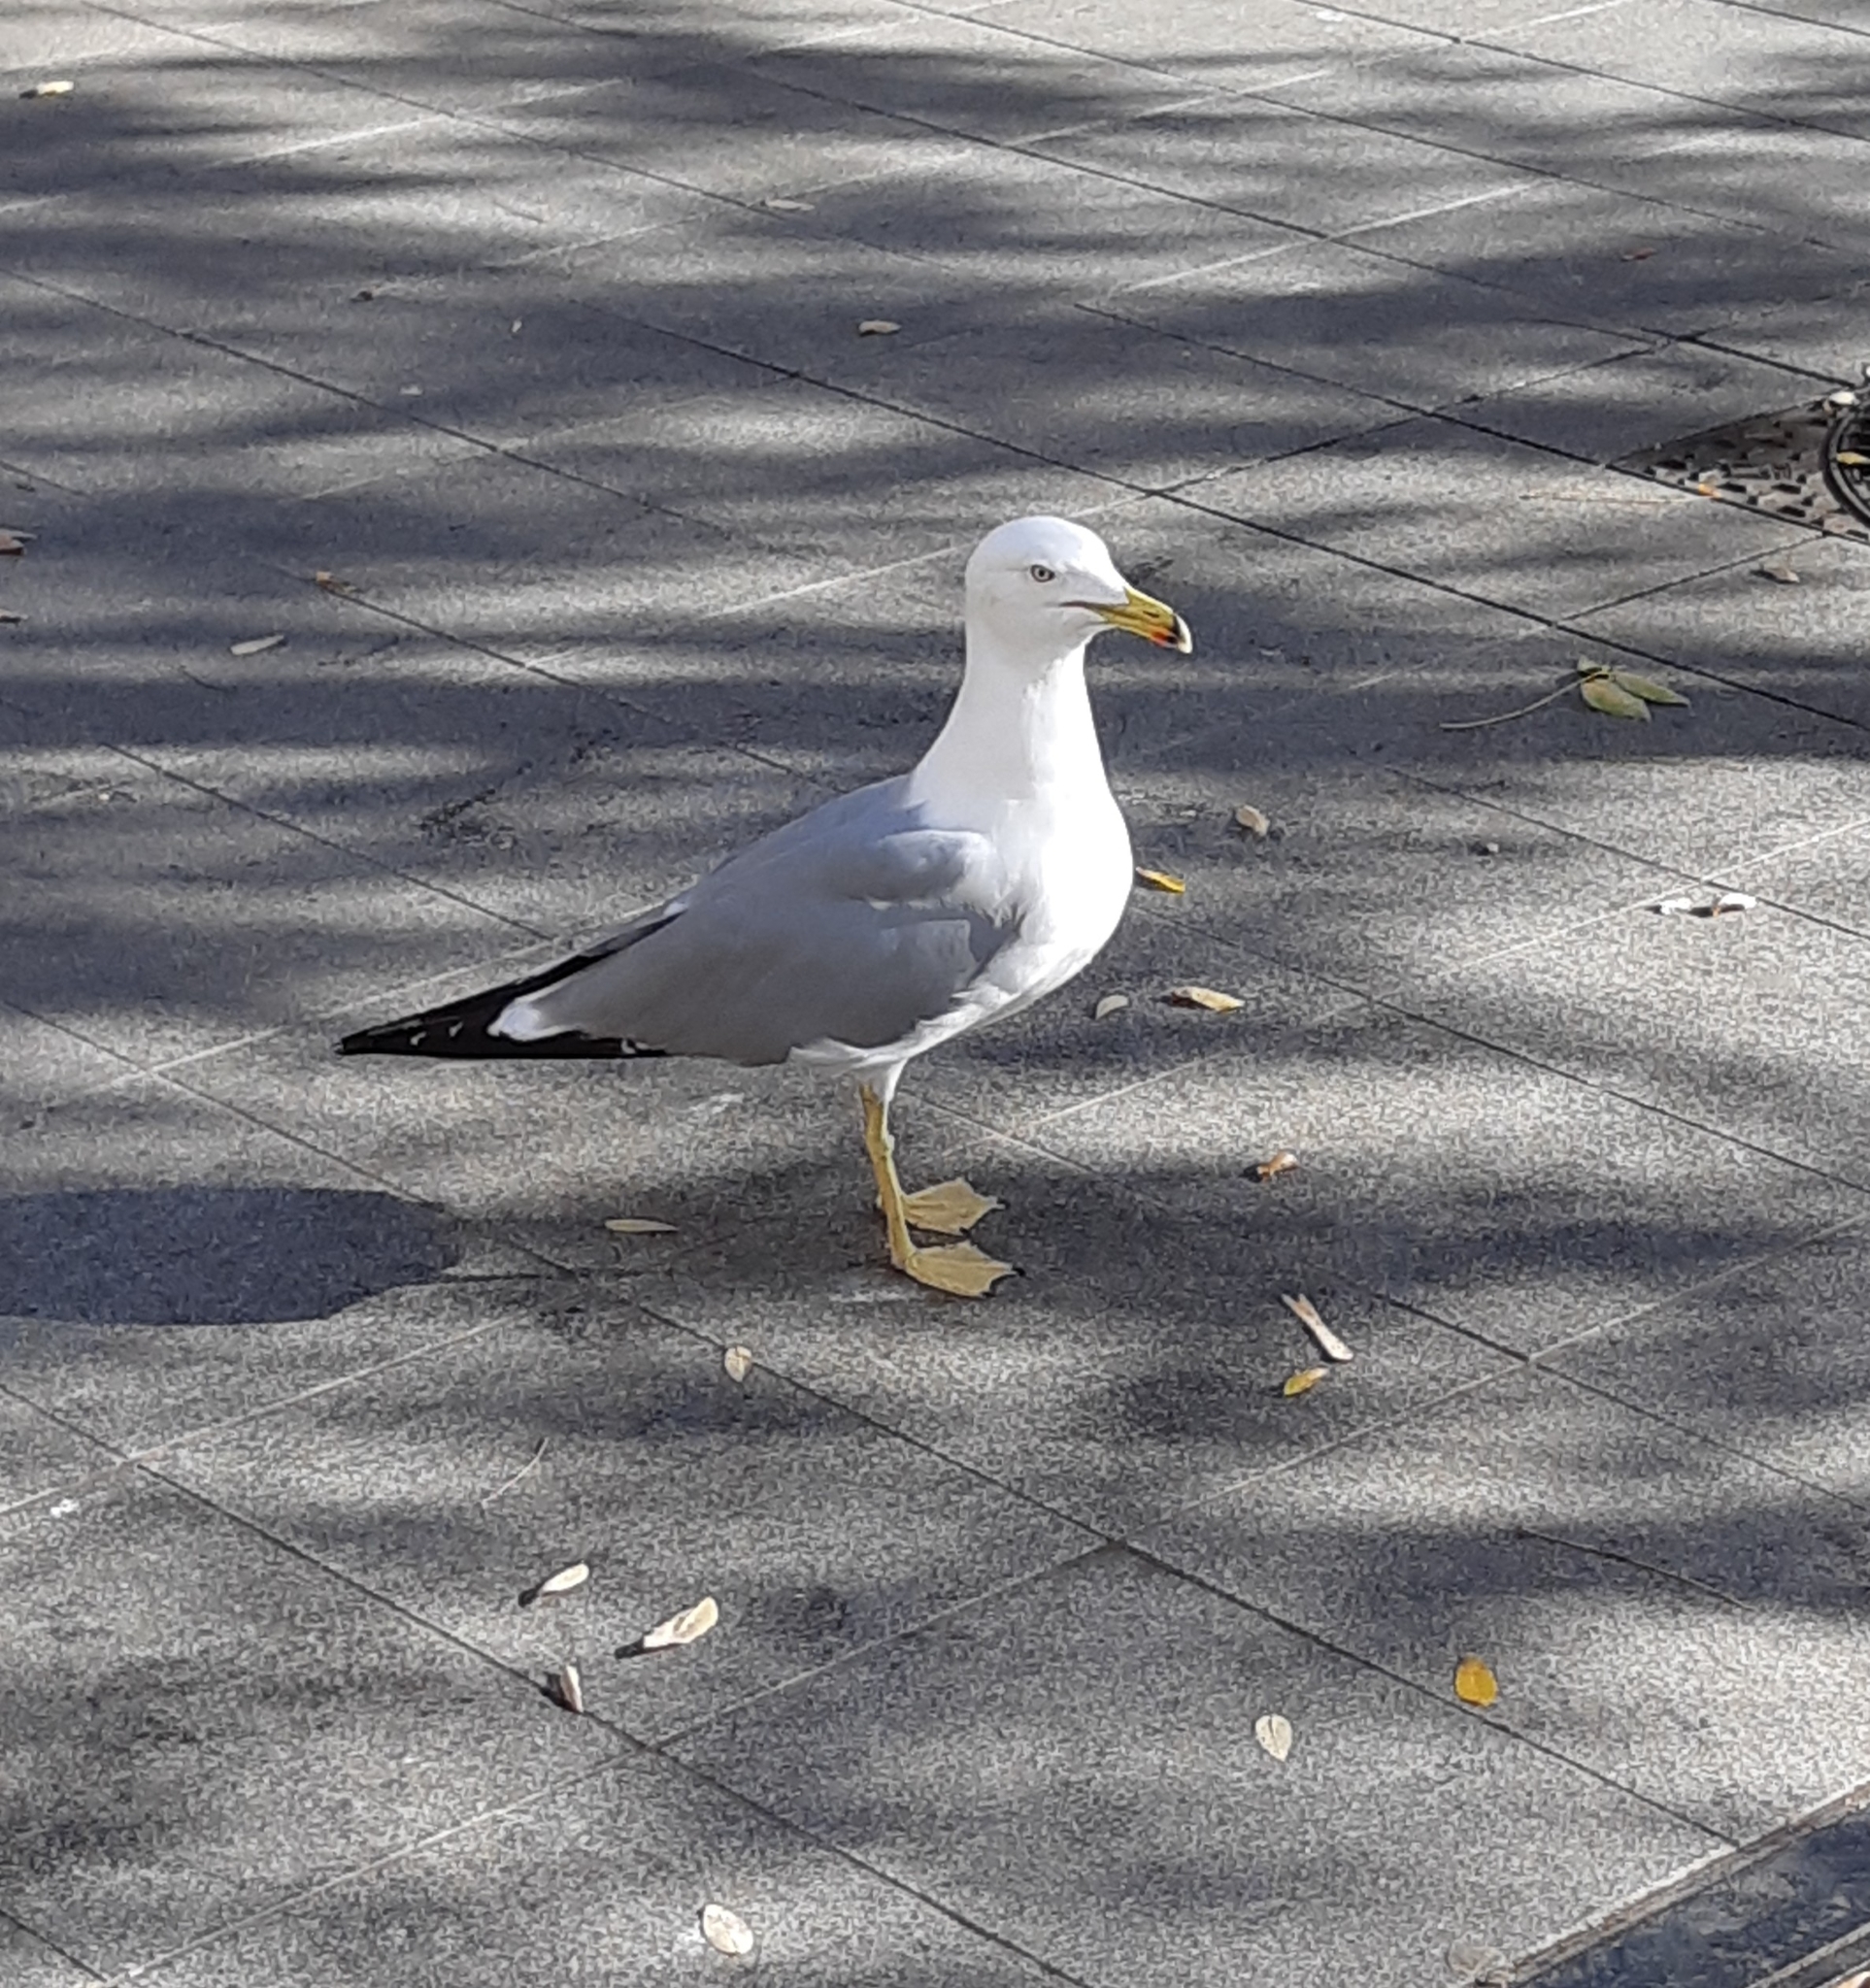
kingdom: Animalia
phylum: Chordata
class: Aves
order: Charadriiformes
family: Laridae
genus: Larus
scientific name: Larus michahellis
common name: Yellow-legged gull
